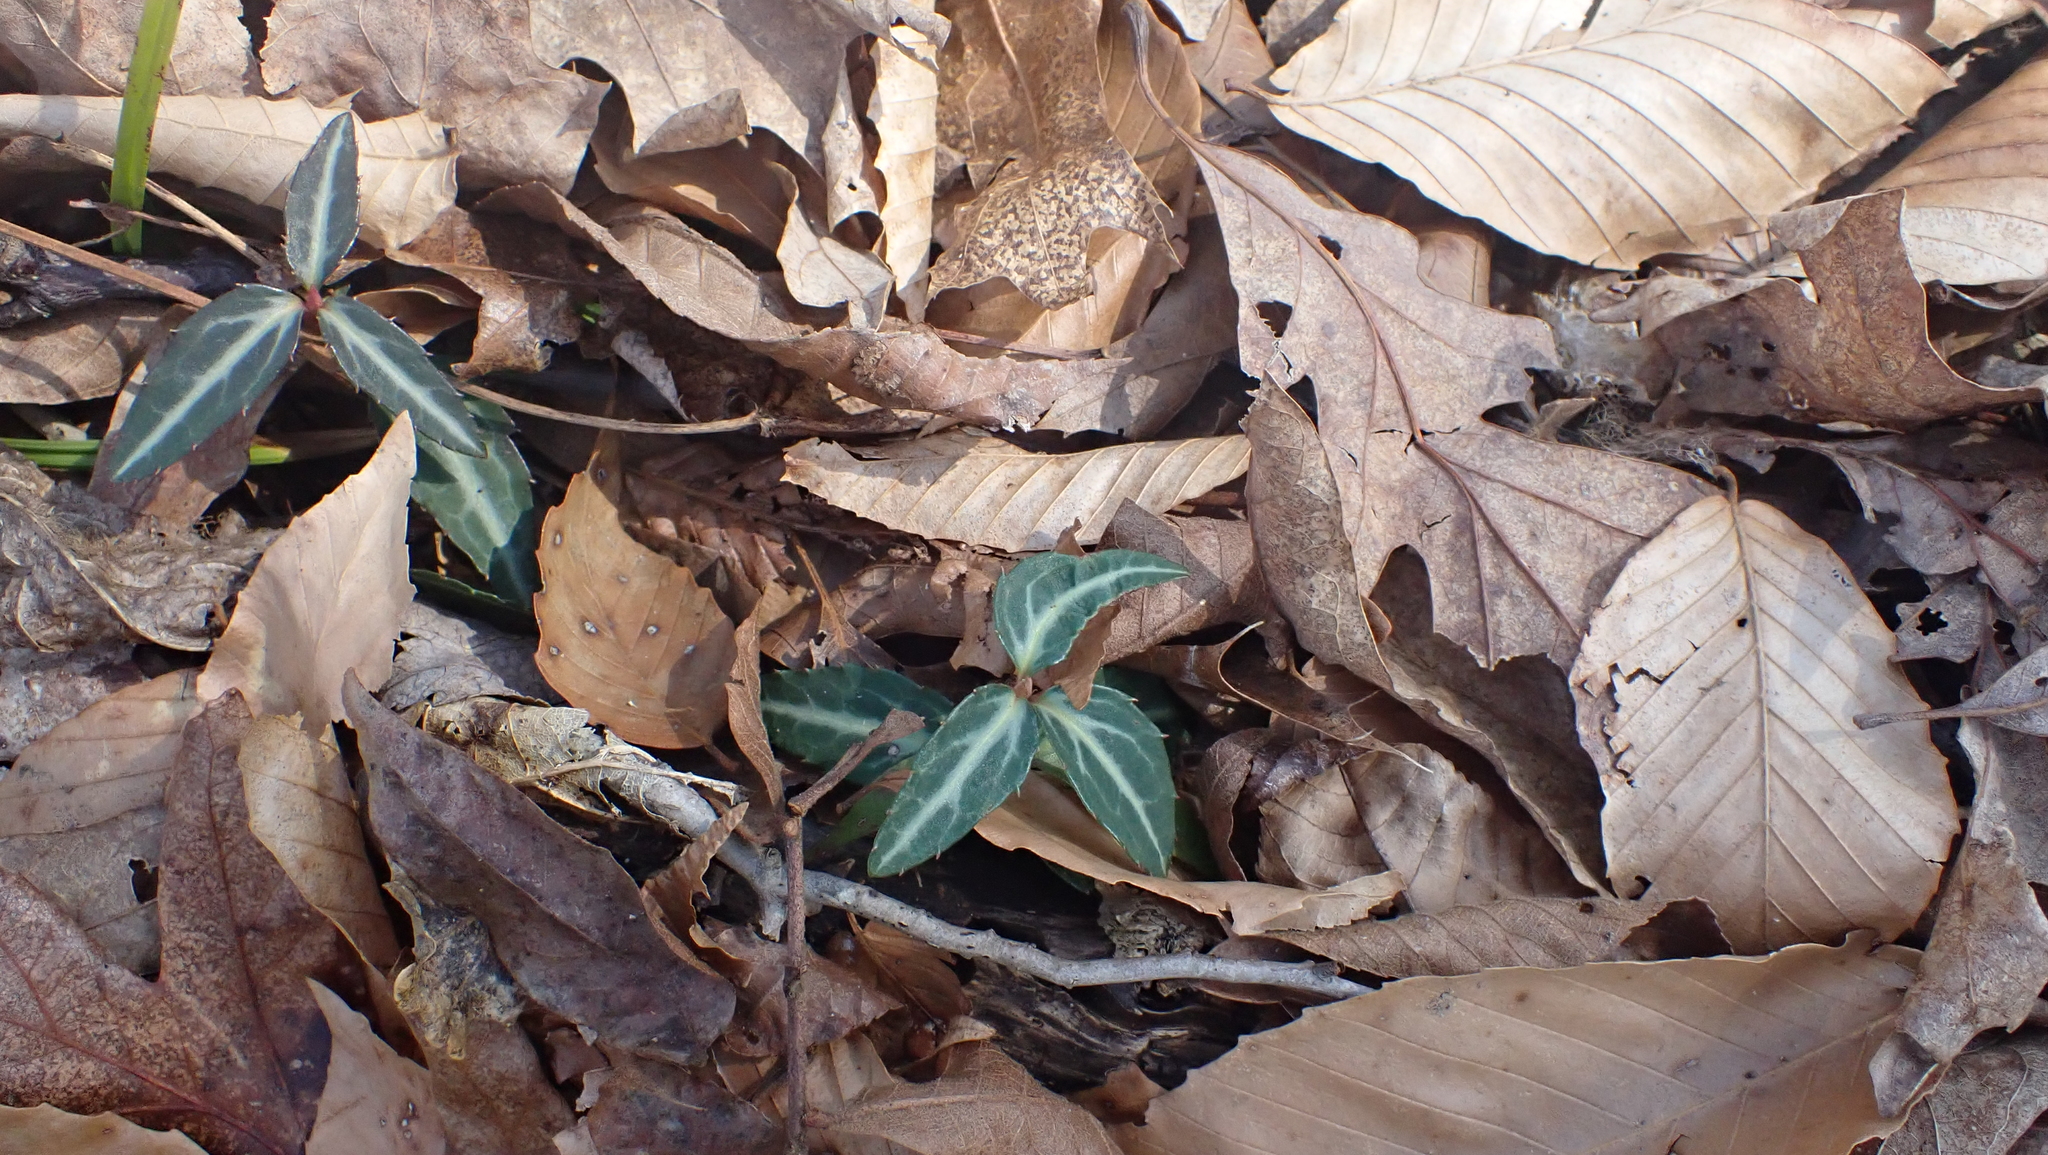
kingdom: Plantae
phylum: Tracheophyta
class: Magnoliopsida
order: Ericales
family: Ericaceae
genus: Chimaphila
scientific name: Chimaphila maculata
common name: Spotted pipsissewa
